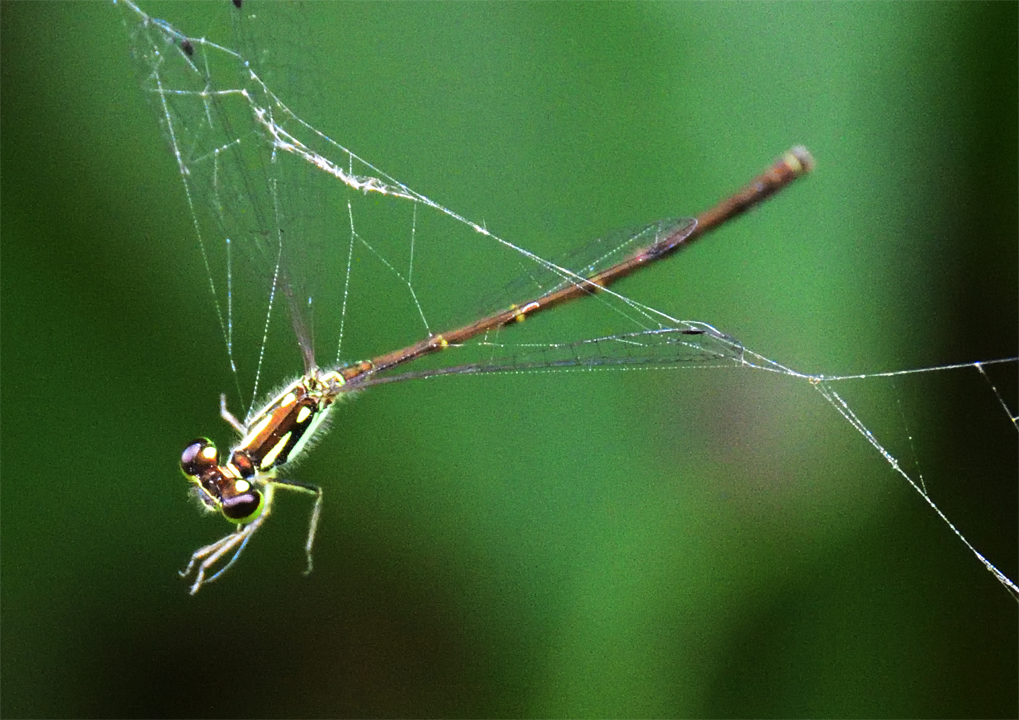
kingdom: Animalia
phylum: Arthropoda
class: Insecta
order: Odonata
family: Coenagrionidae
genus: Ischnura
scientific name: Ischnura posita
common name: Fragile forktail
